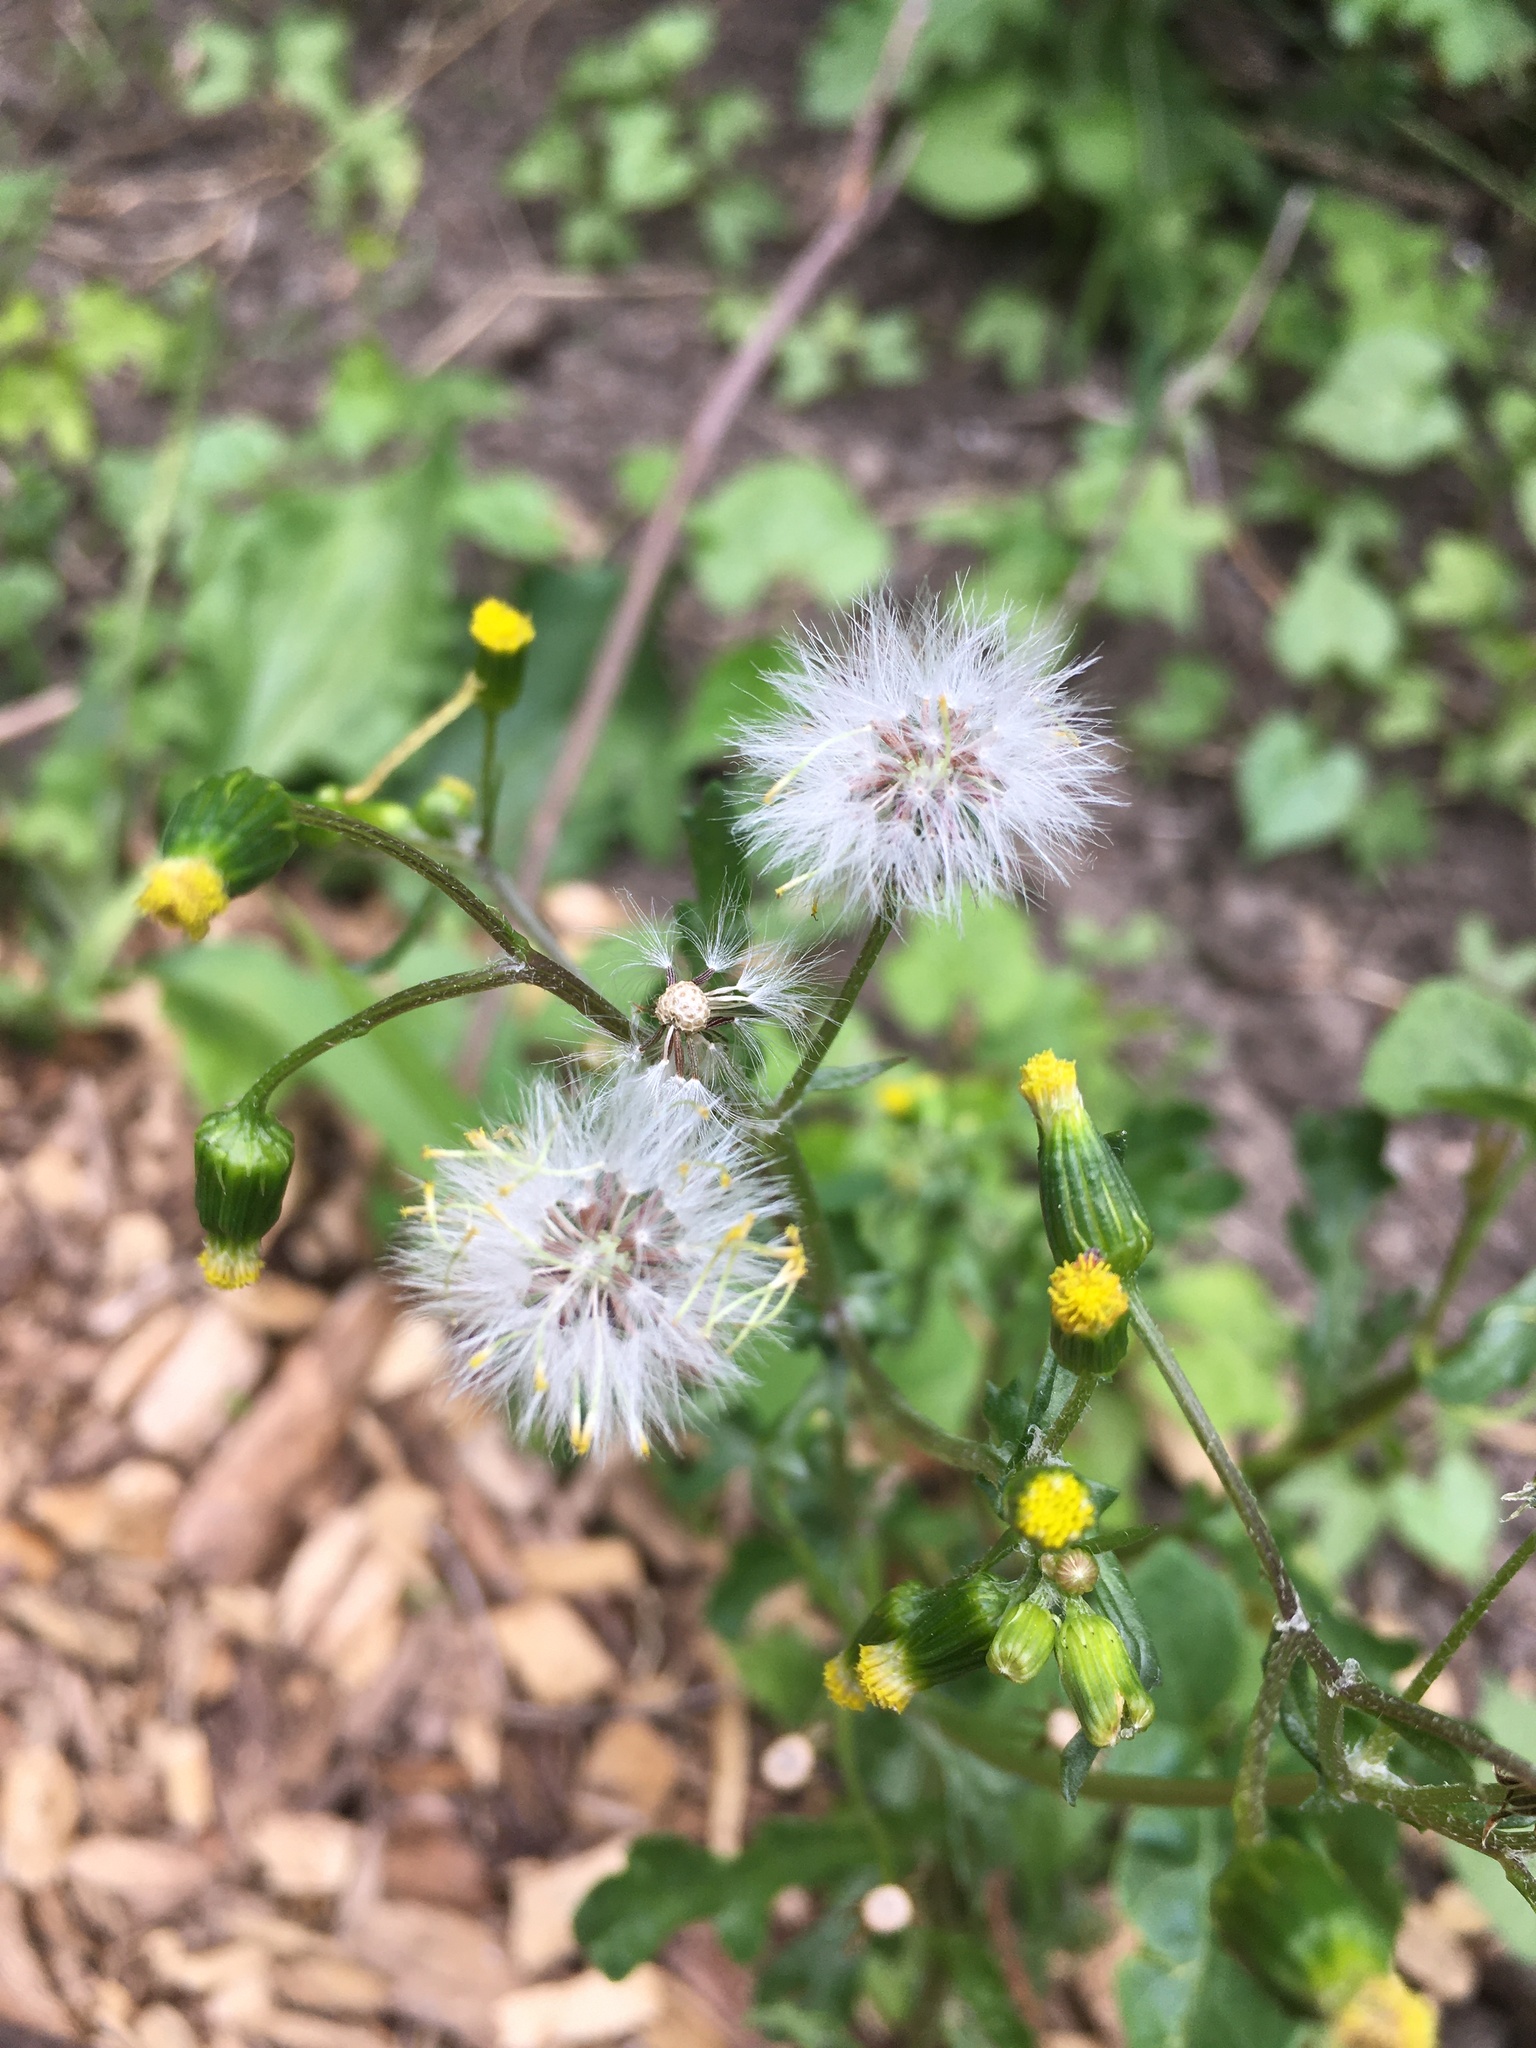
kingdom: Plantae
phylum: Tracheophyta
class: Magnoliopsida
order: Asterales
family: Asteraceae
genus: Senecio
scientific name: Senecio vulgaris
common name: Old-man-in-the-spring
